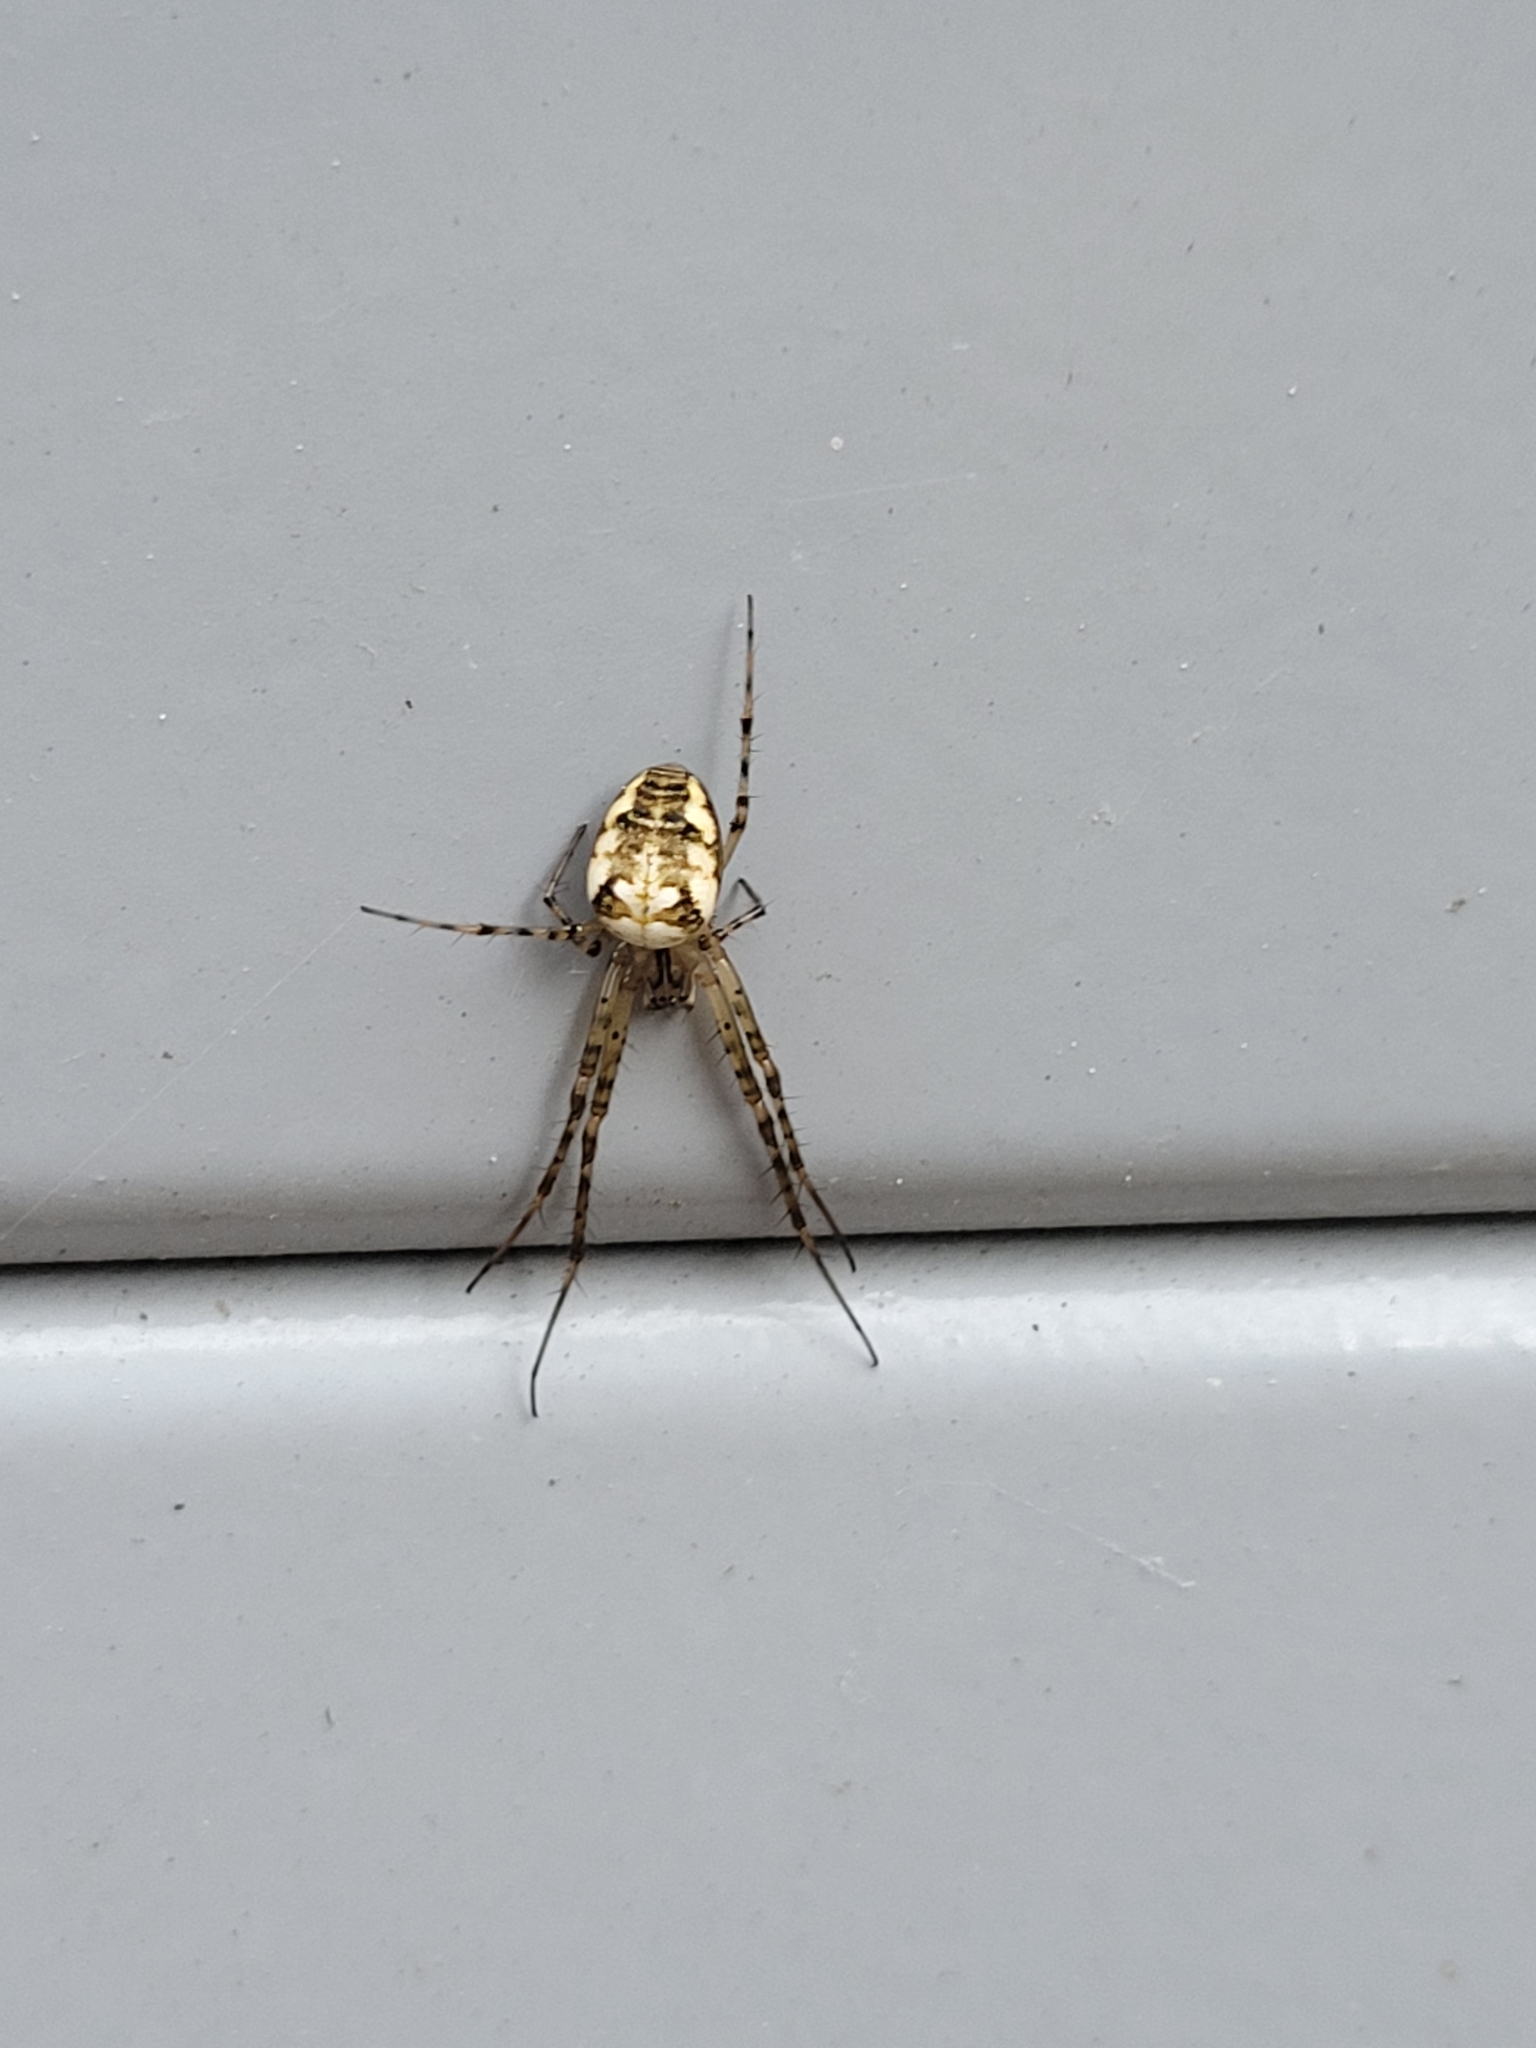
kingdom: Animalia
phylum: Arthropoda
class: Arachnida
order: Araneae
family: Tetragnathidae
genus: Metellina
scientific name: Metellina segmentata
